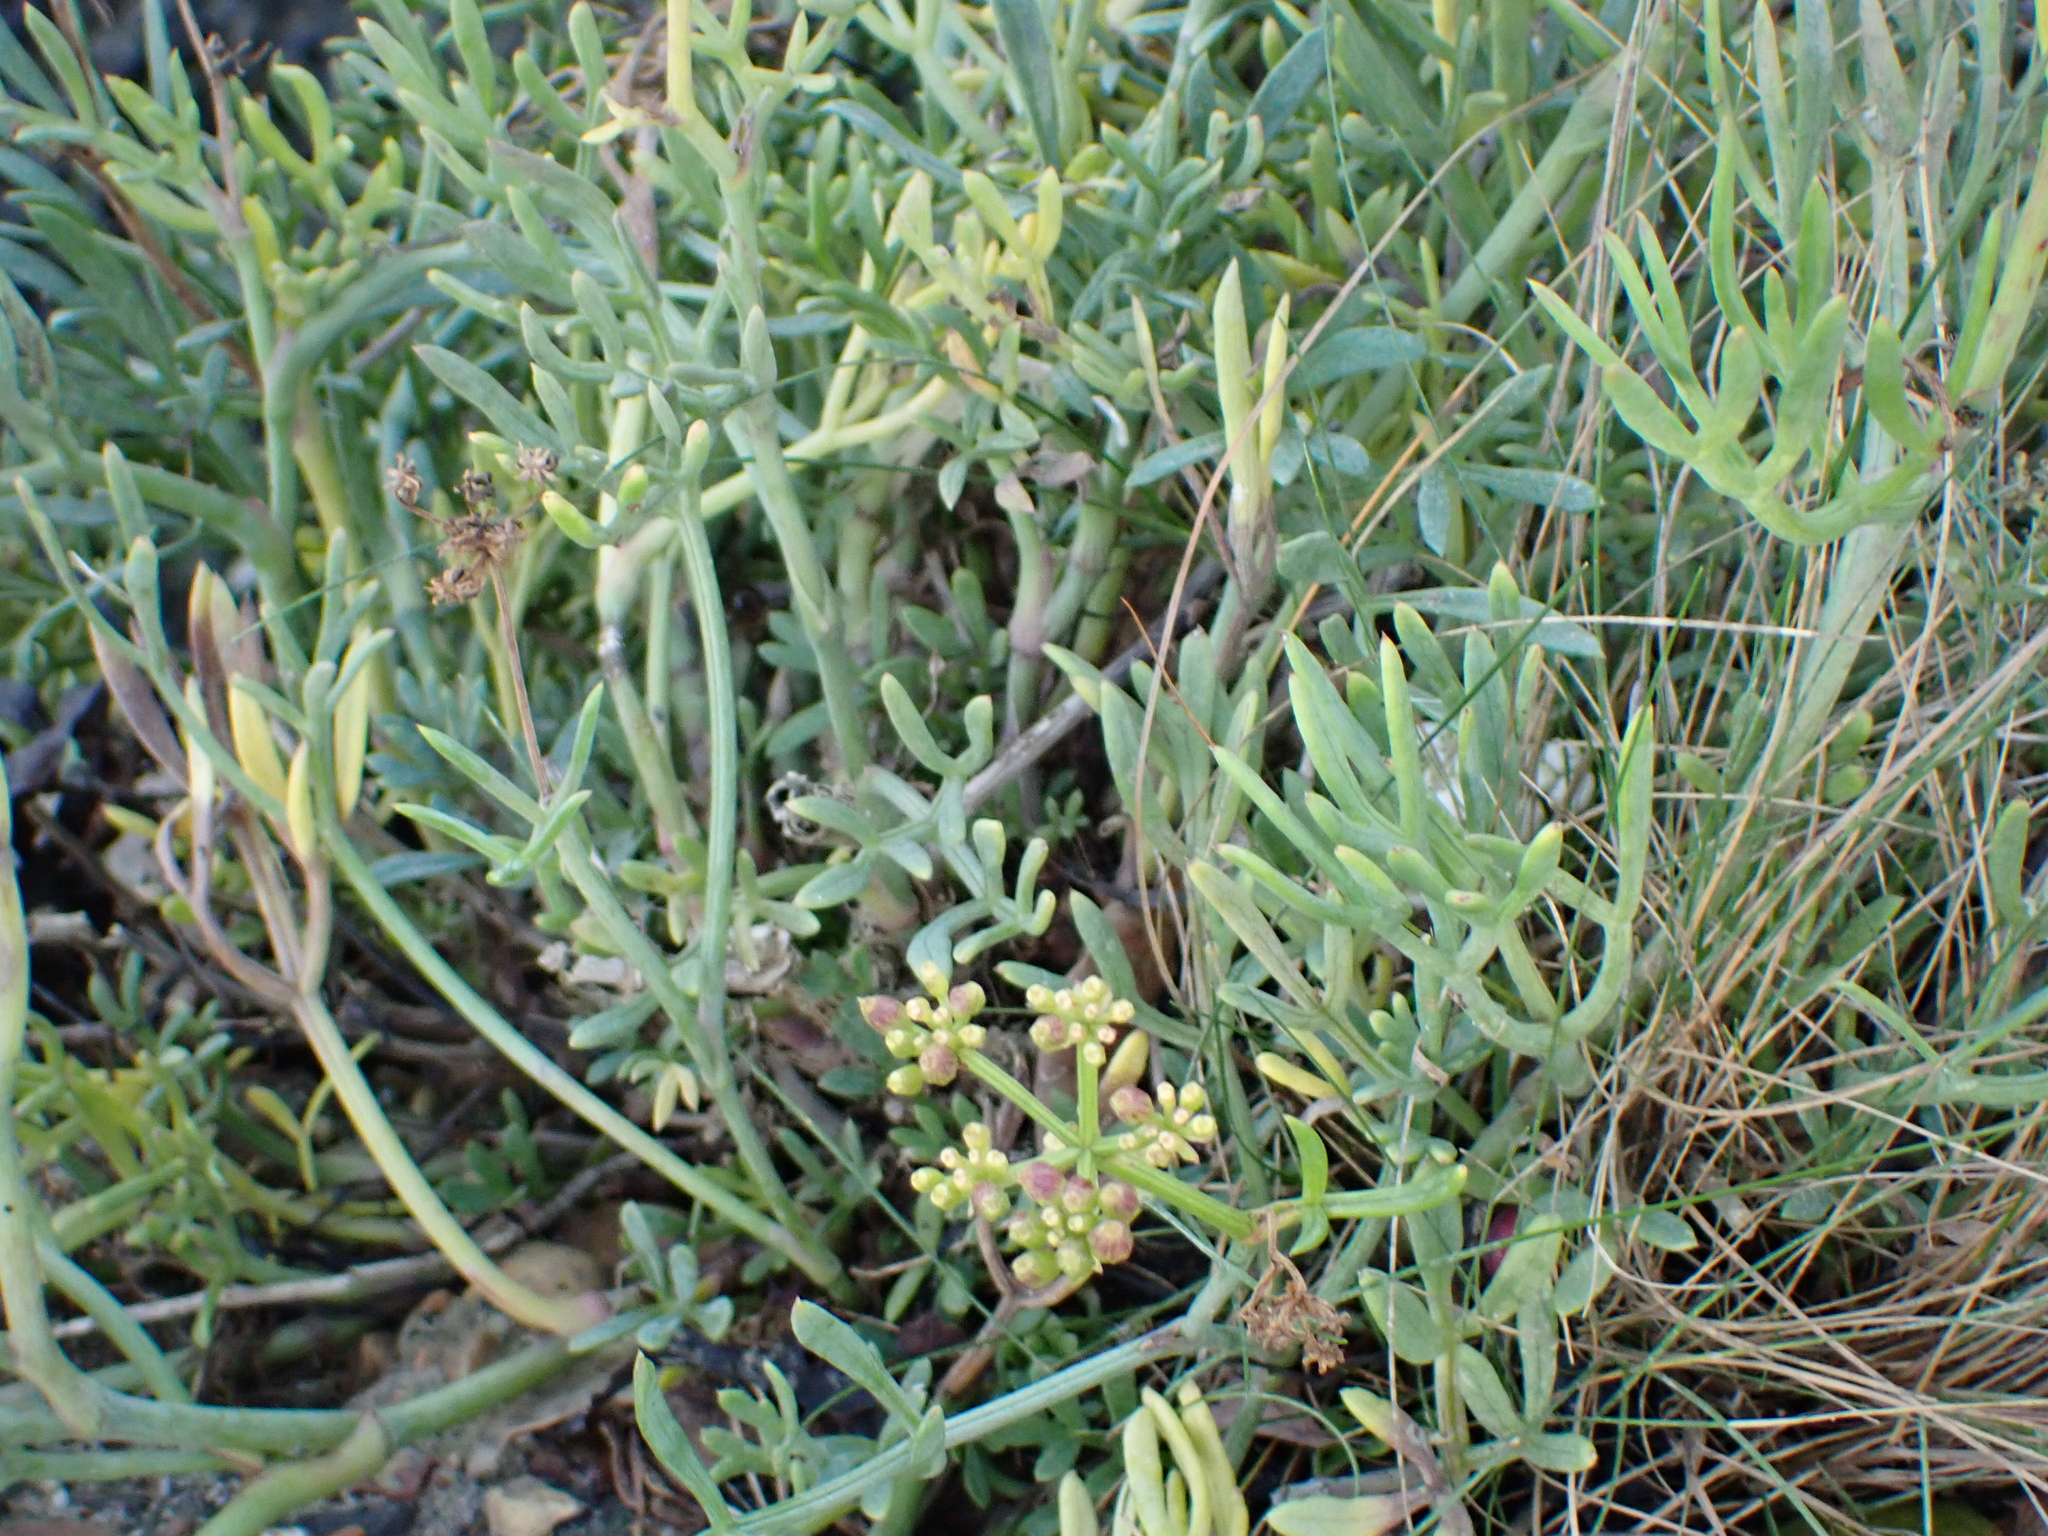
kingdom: Plantae
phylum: Tracheophyta
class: Magnoliopsida
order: Apiales
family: Apiaceae
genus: Crithmum
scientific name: Crithmum maritimum
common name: Rock samphire
